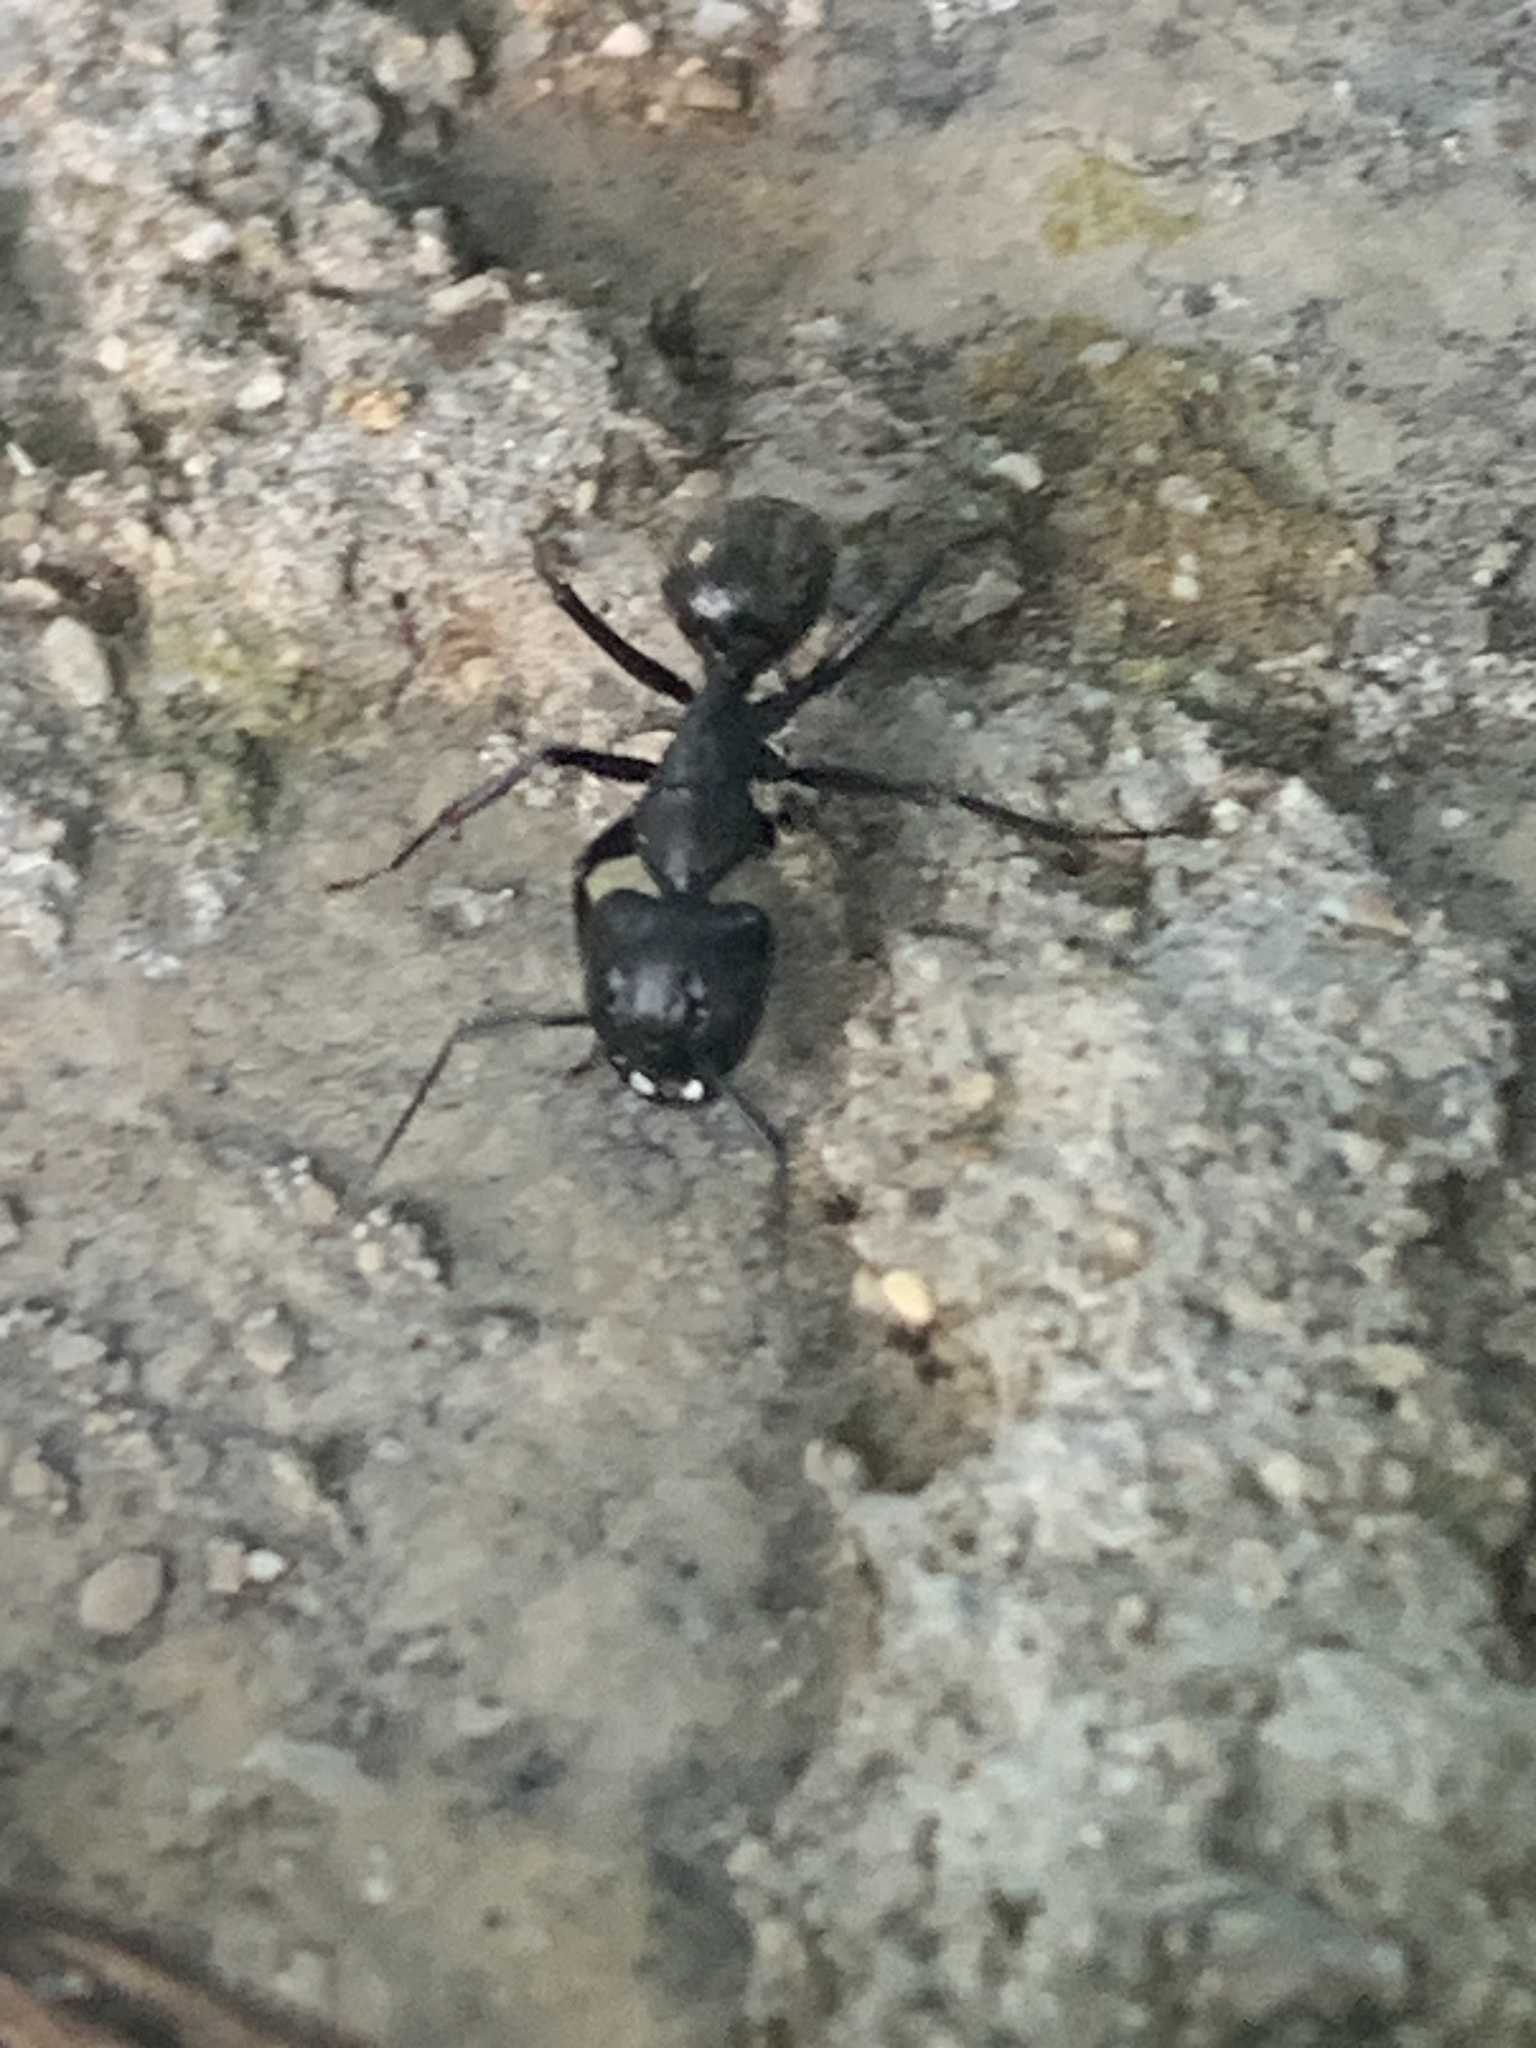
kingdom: Animalia
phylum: Arthropoda
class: Insecta
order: Hymenoptera
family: Formicidae
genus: Camponotus
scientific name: Camponotus vagus
